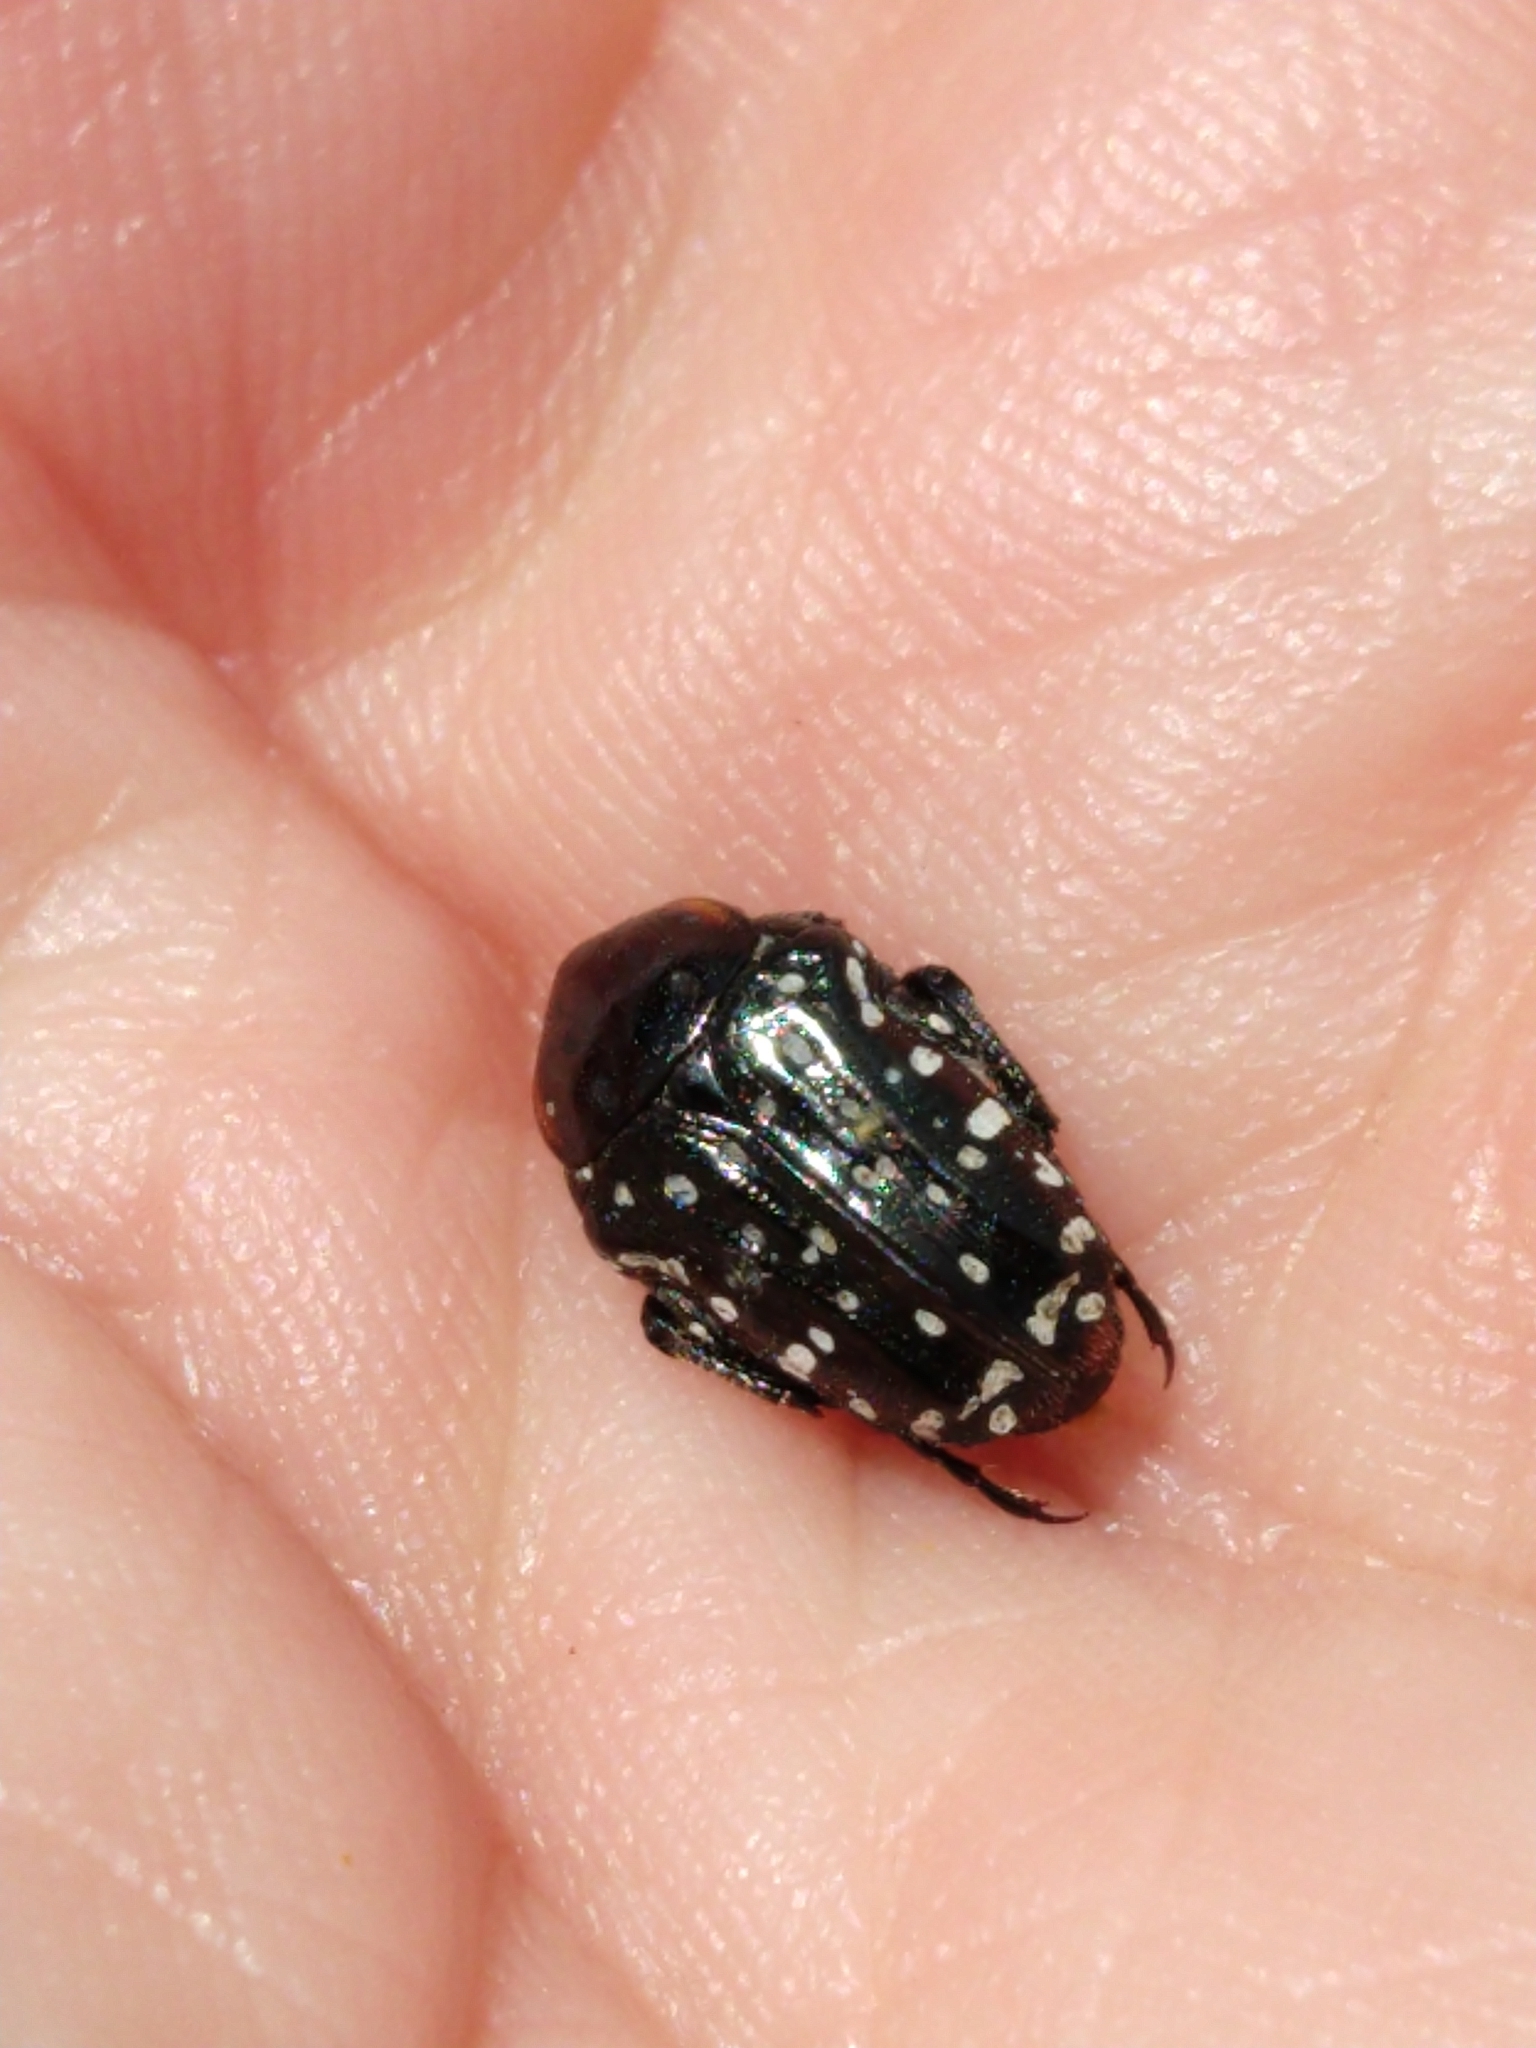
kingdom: Animalia
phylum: Arthropoda
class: Insecta
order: Coleoptera
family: Scarabaeidae
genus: Oxythyrea
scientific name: Oxythyrea
